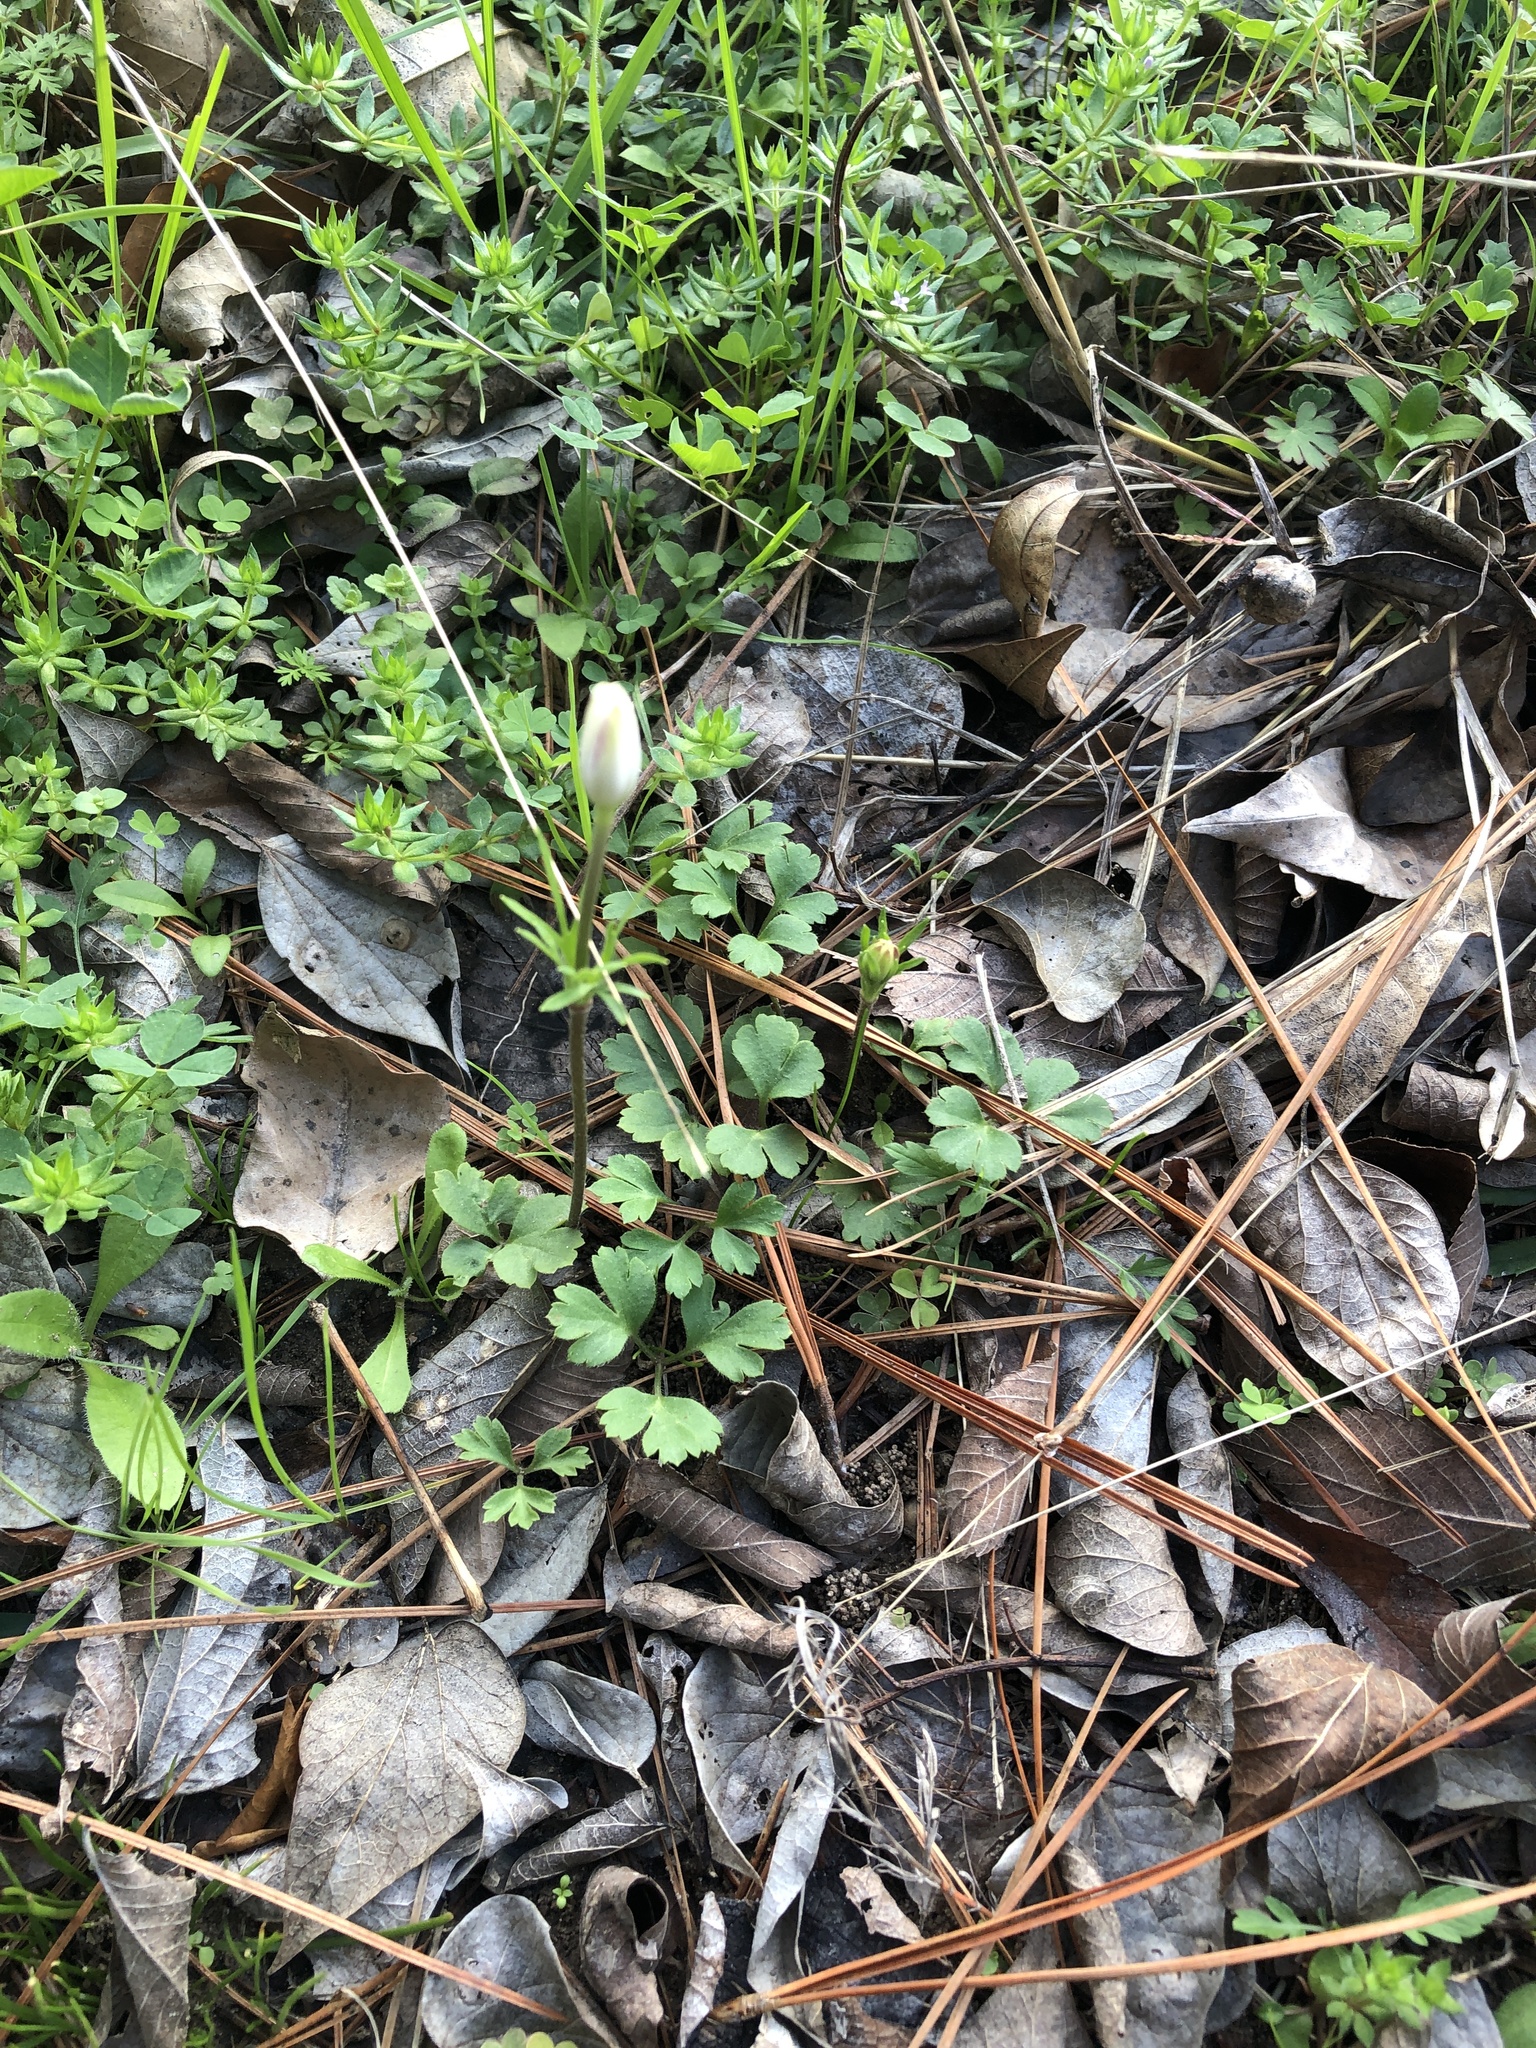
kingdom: Plantae
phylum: Tracheophyta
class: Magnoliopsida
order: Ranunculales
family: Ranunculaceae
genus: Anemone
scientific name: Anemone berlandieri
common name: Ten-petal anemone
